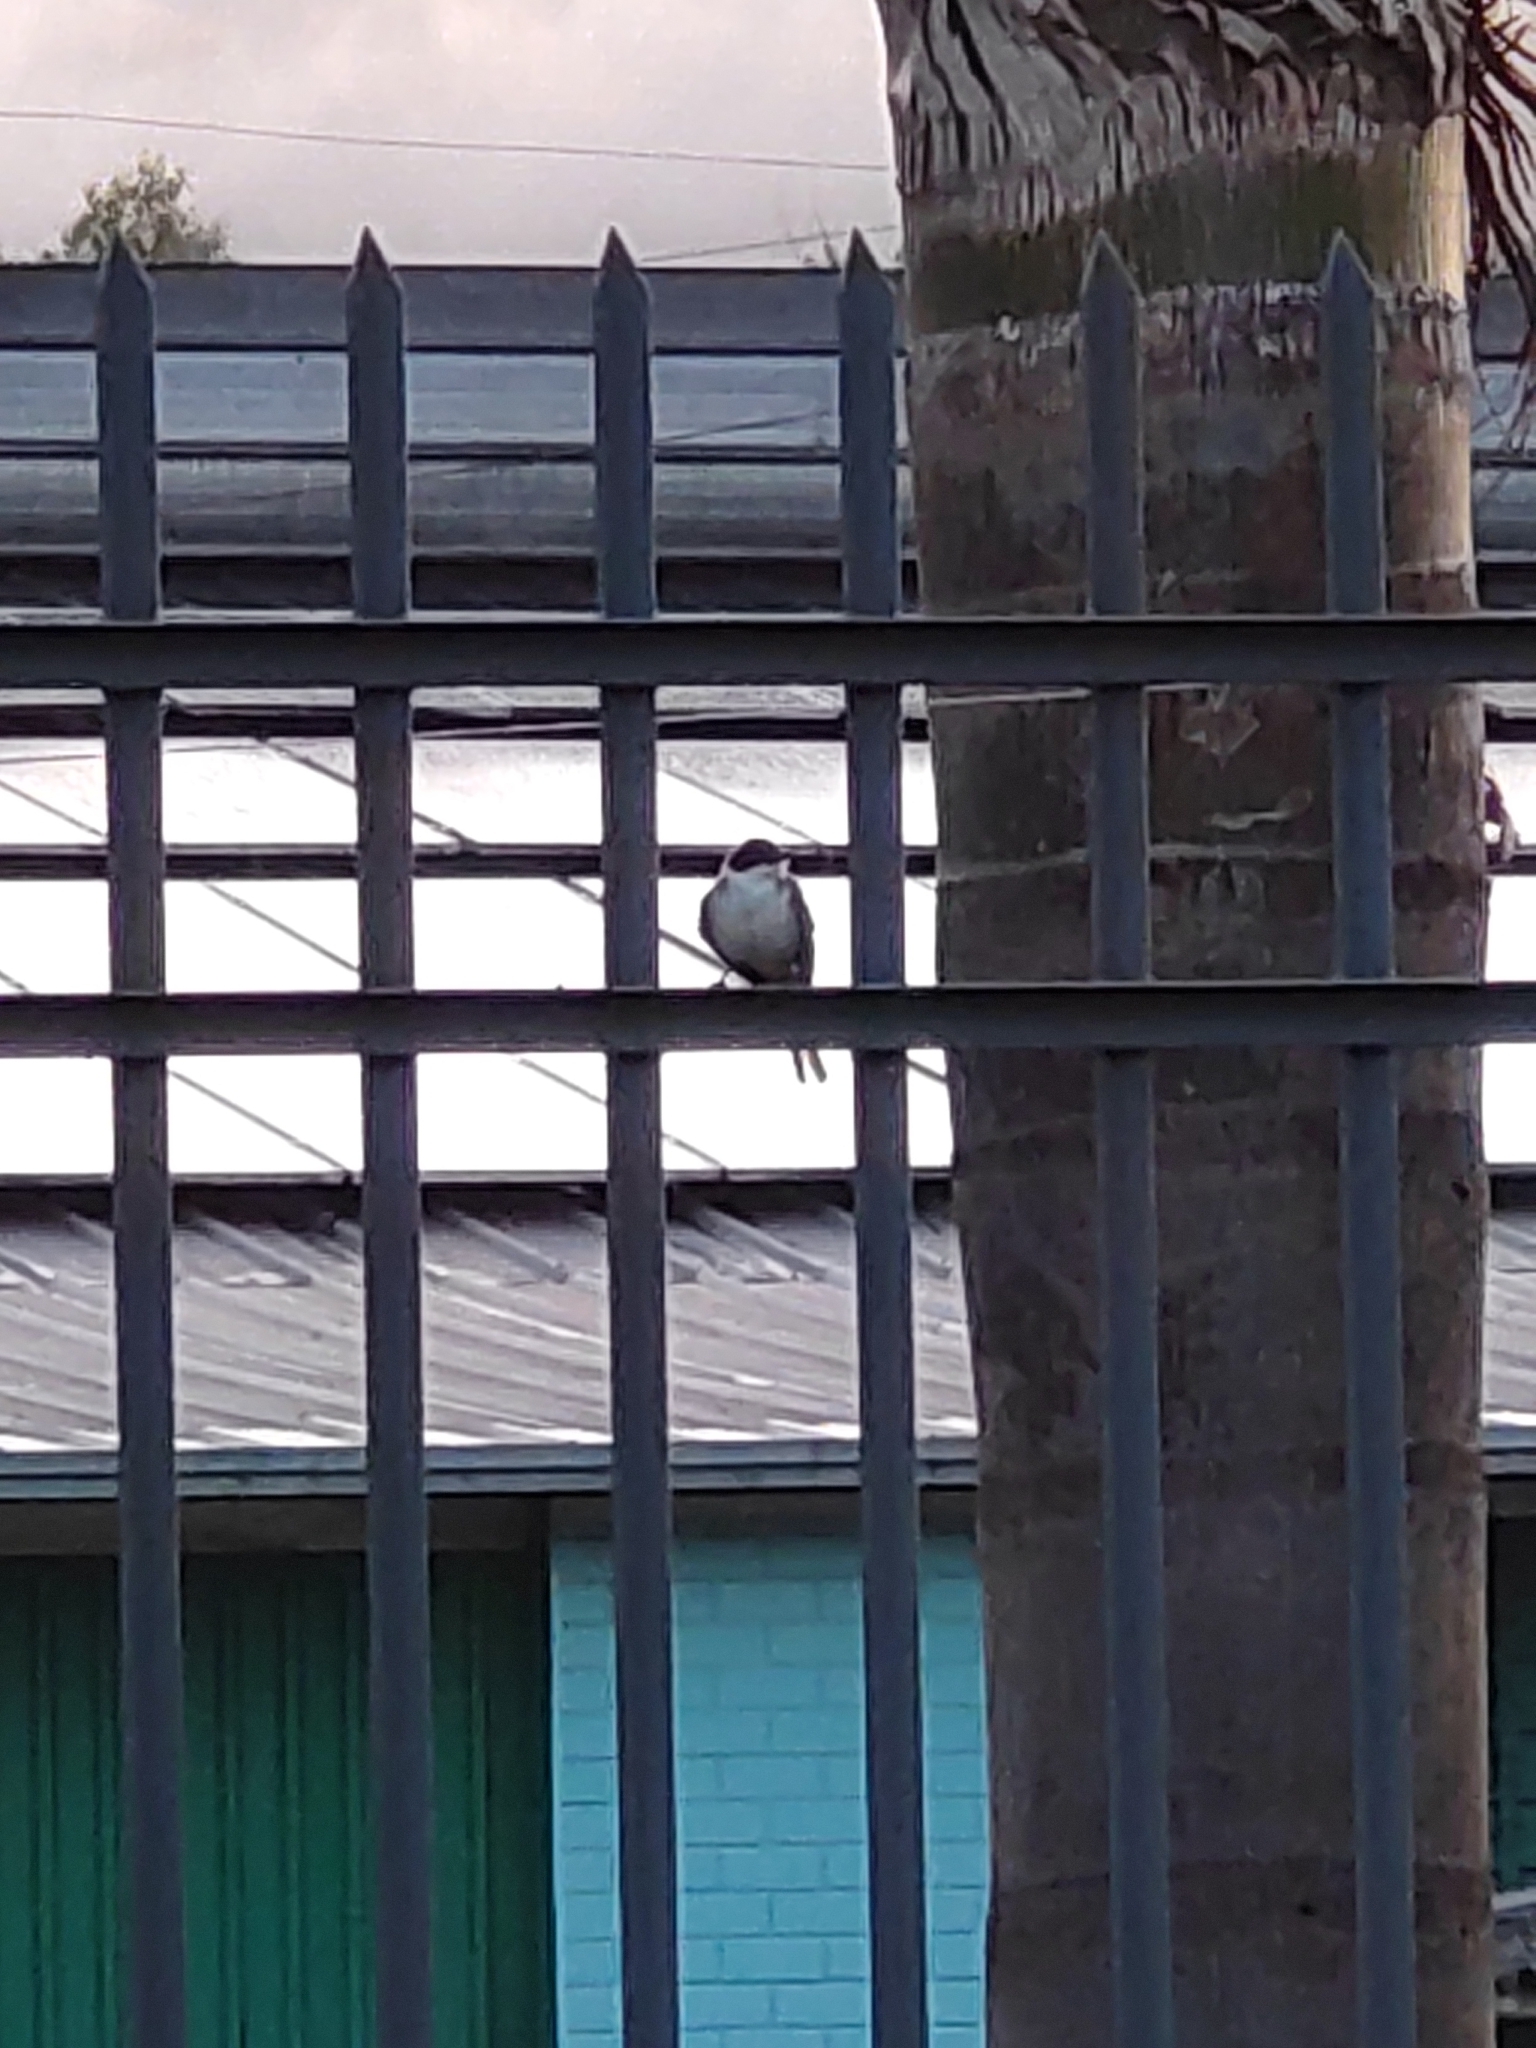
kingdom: Animalia
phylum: Chordata
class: Aves
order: Passeriformes
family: Tyrannidae
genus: Tyrannus
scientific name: Tyrannus savana
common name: Fork-tailed flycatcher
